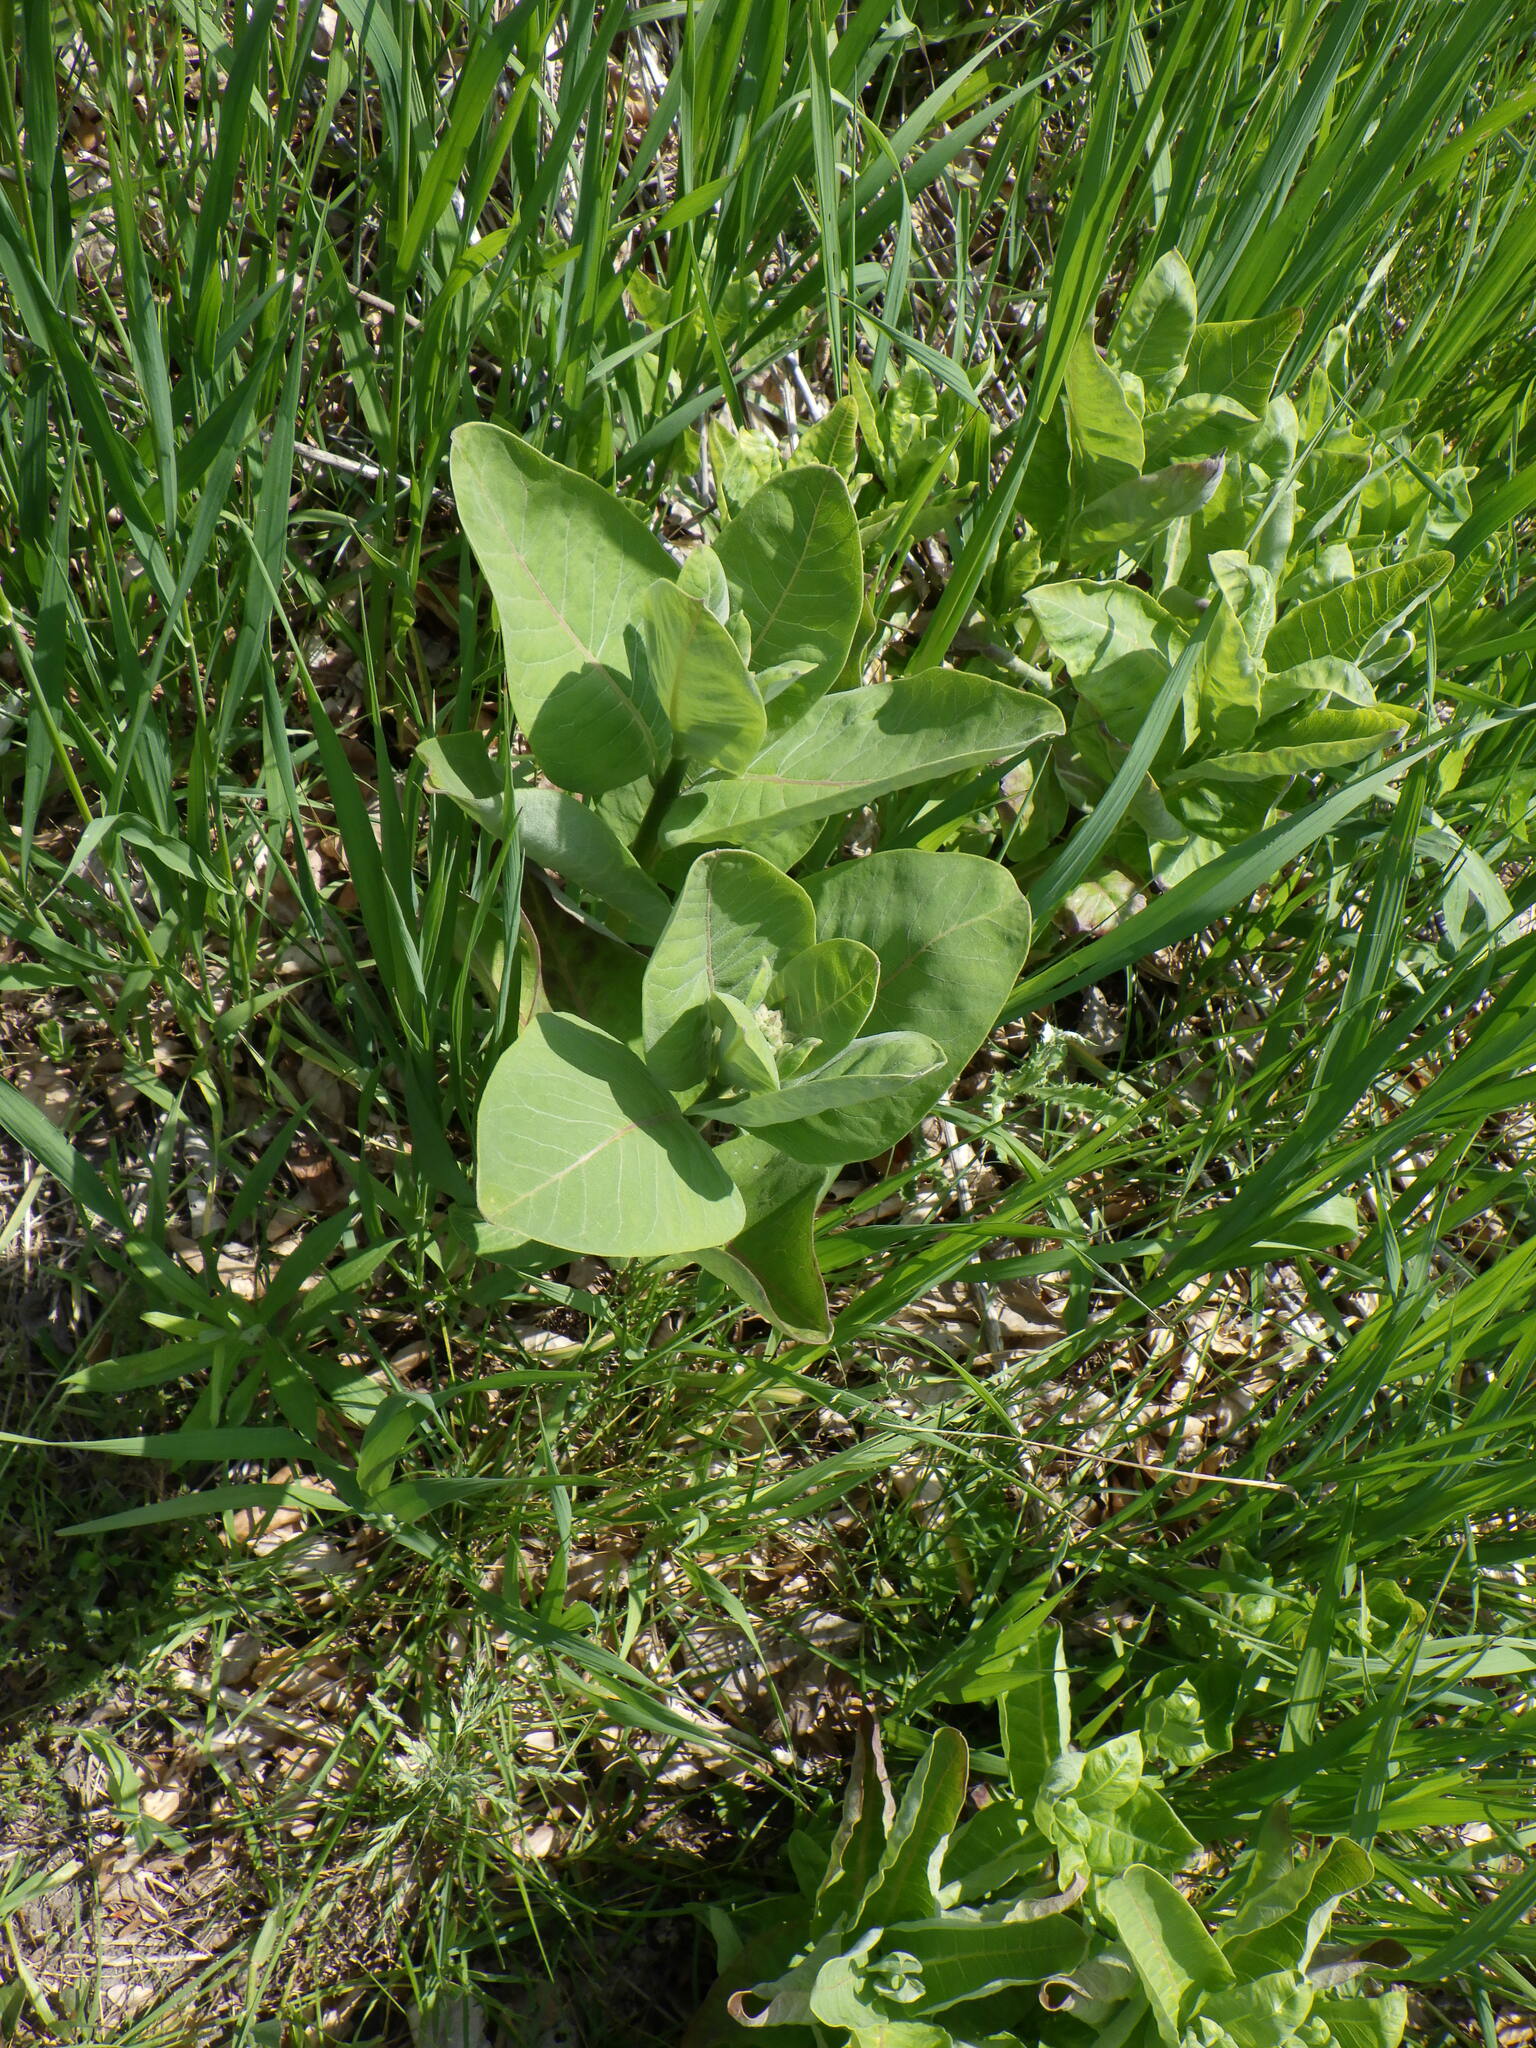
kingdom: Plantae
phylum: Tracheophyta
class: Magnoliopsida
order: Gentianales
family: Apocynaceae
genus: Asclepias
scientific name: Asclepias syriaca
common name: Common milkweed
